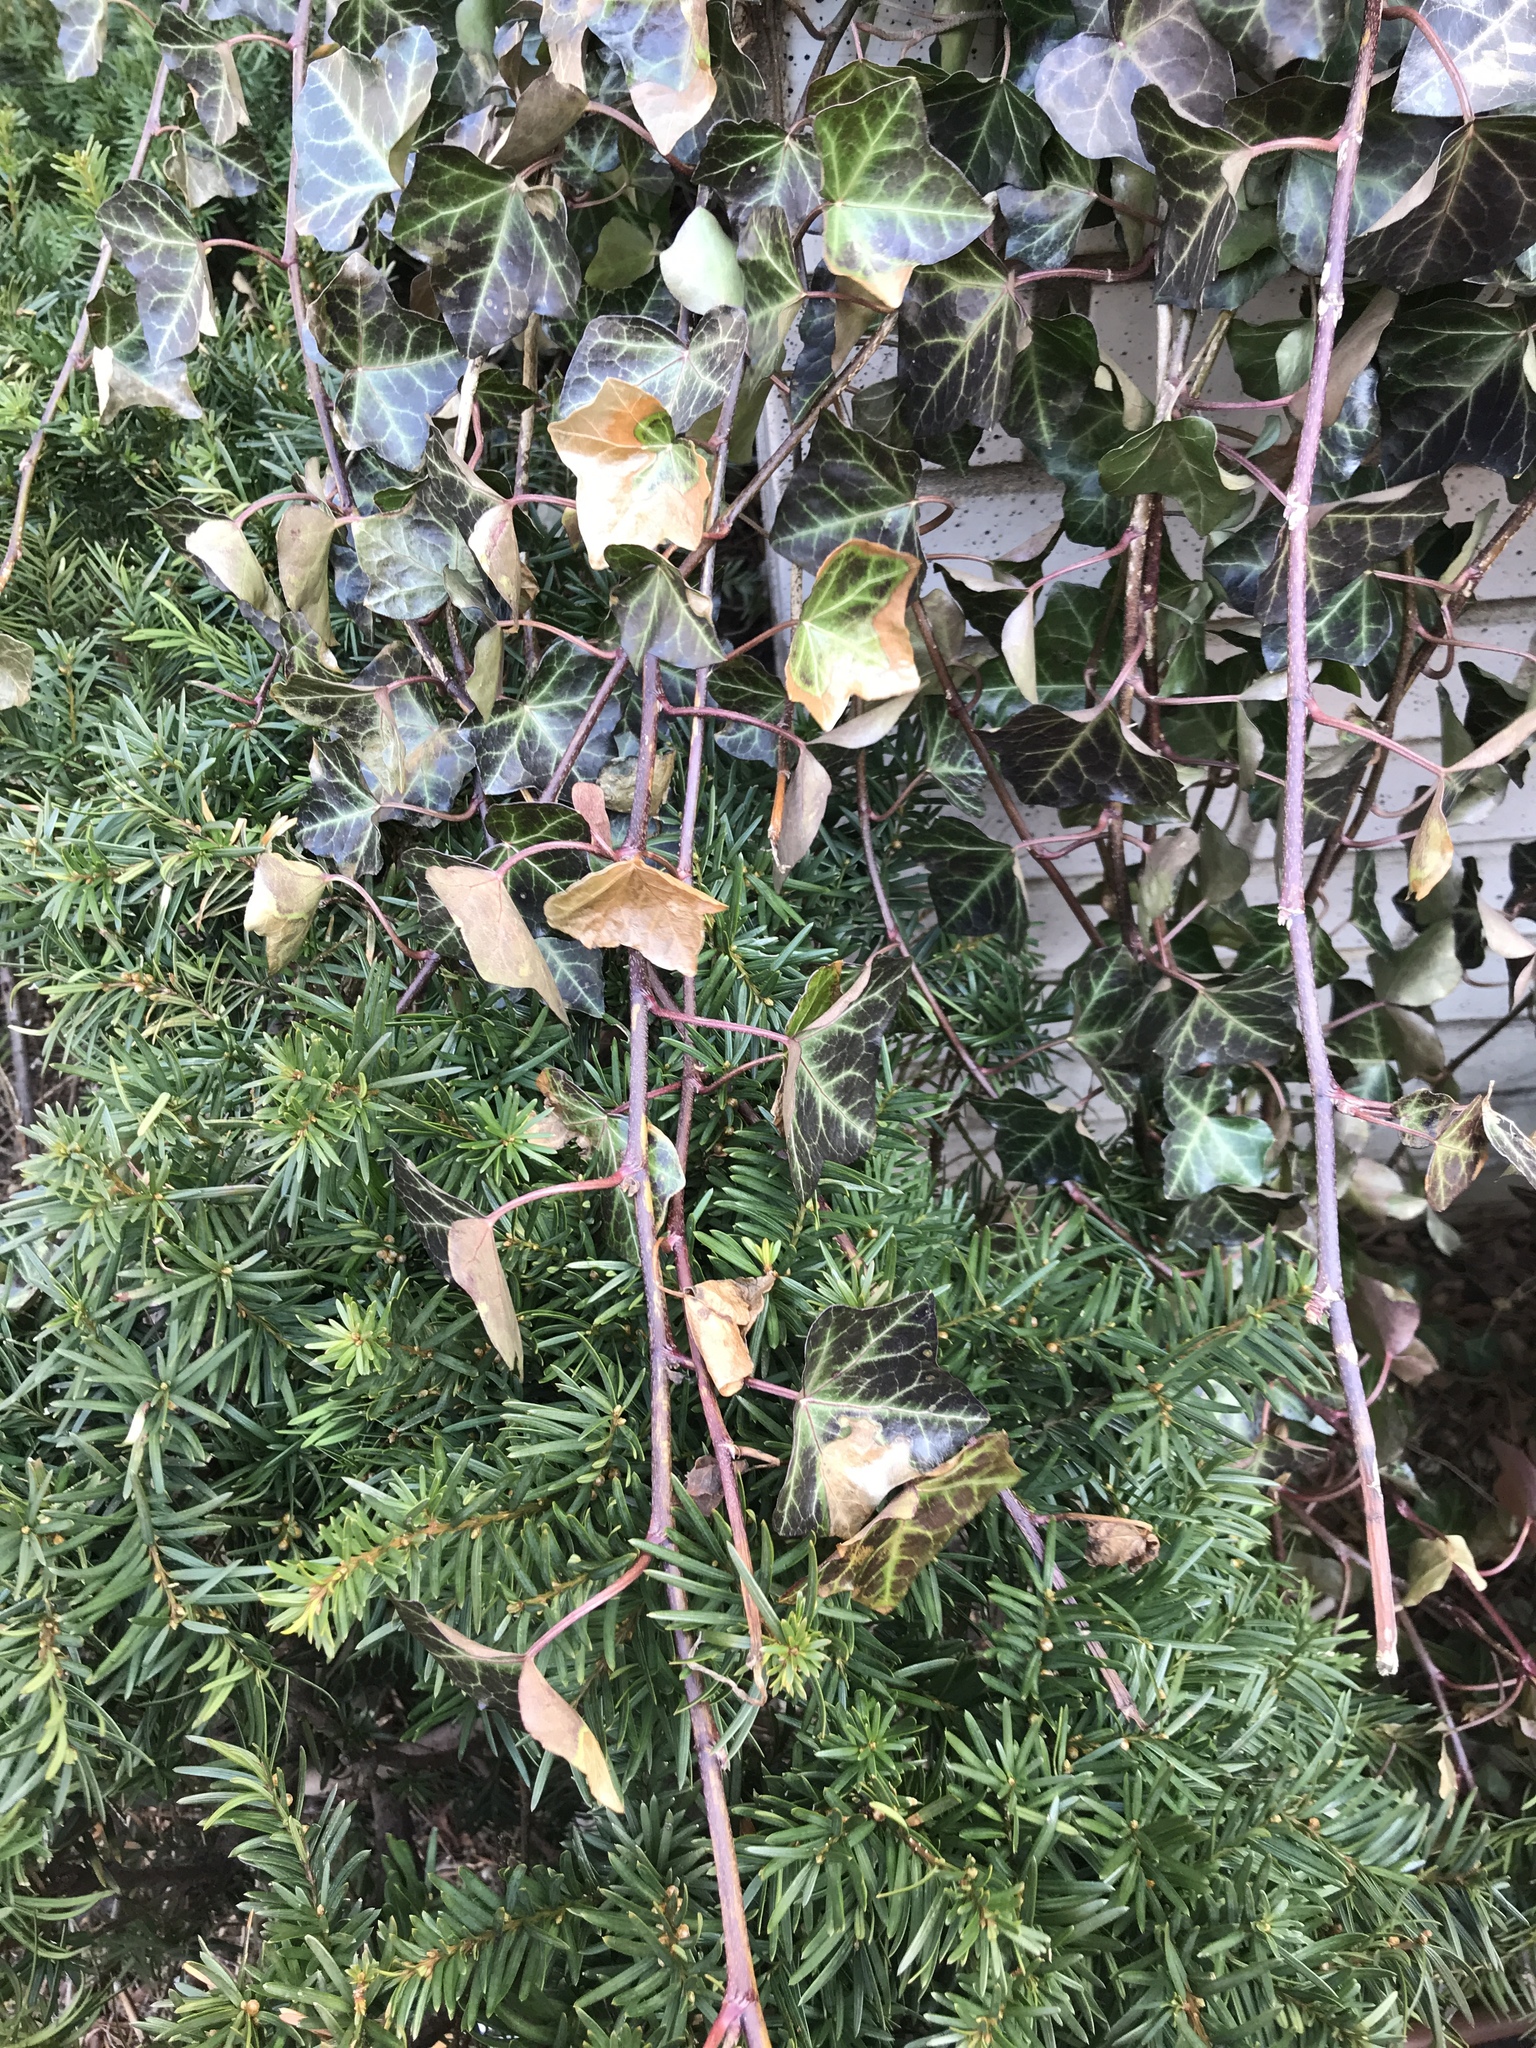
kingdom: Plantae
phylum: Tracheophyta
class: Magnoliopsida
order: Apiales
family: Araliaceae
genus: Hedera
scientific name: Hedera helix
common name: Ivy
